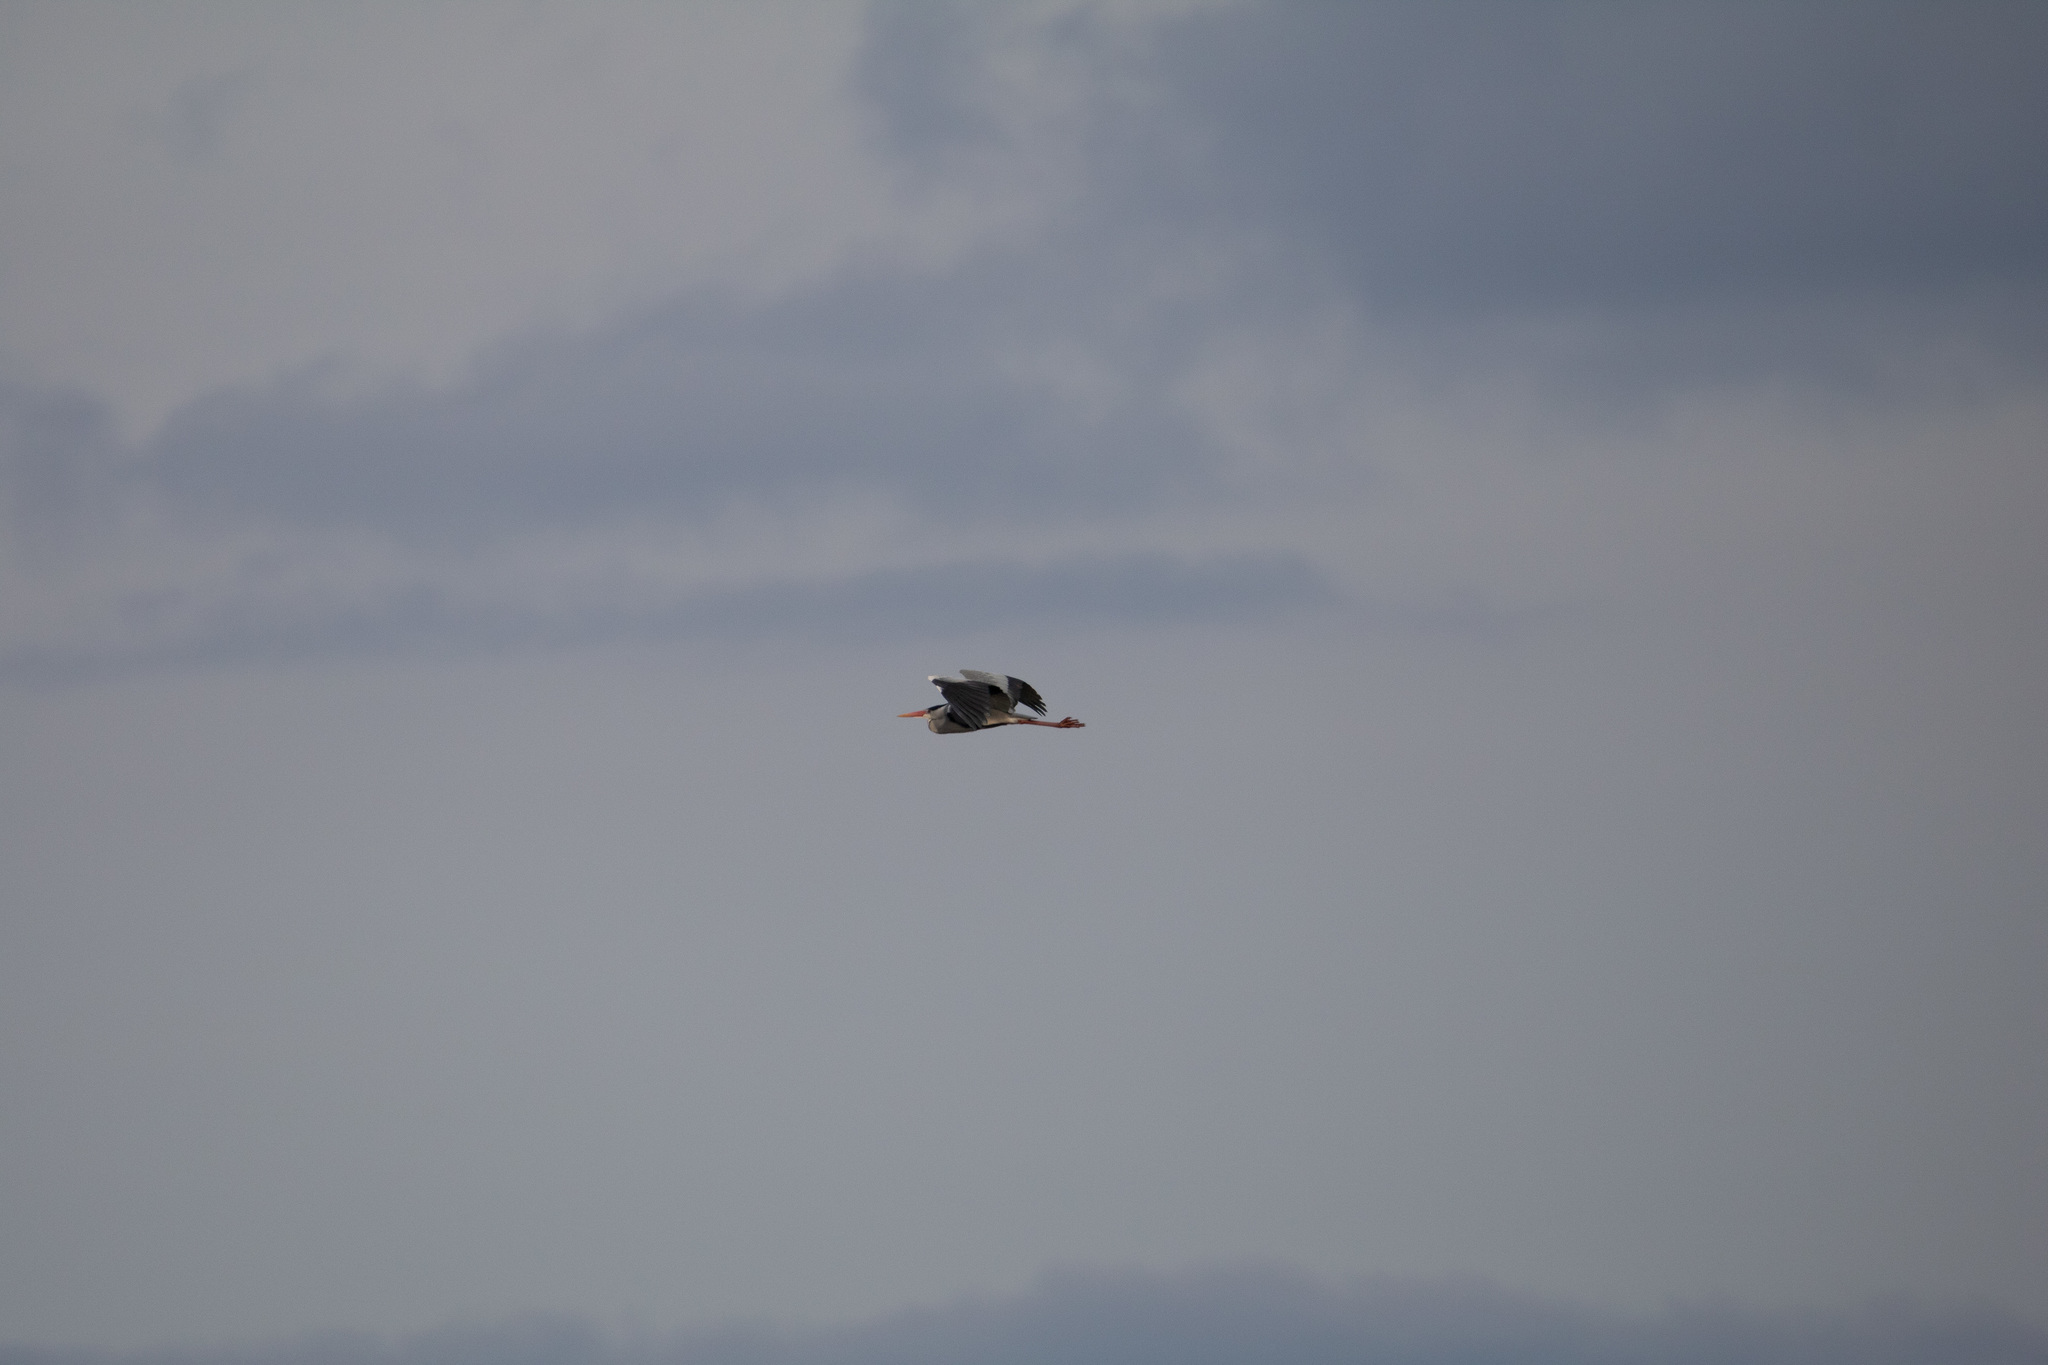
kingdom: Animalia
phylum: Chordata
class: Aves
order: Pelecaniformes
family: Ardeidae
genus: Ardea
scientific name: Ardea cinerea
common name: Grey heron
